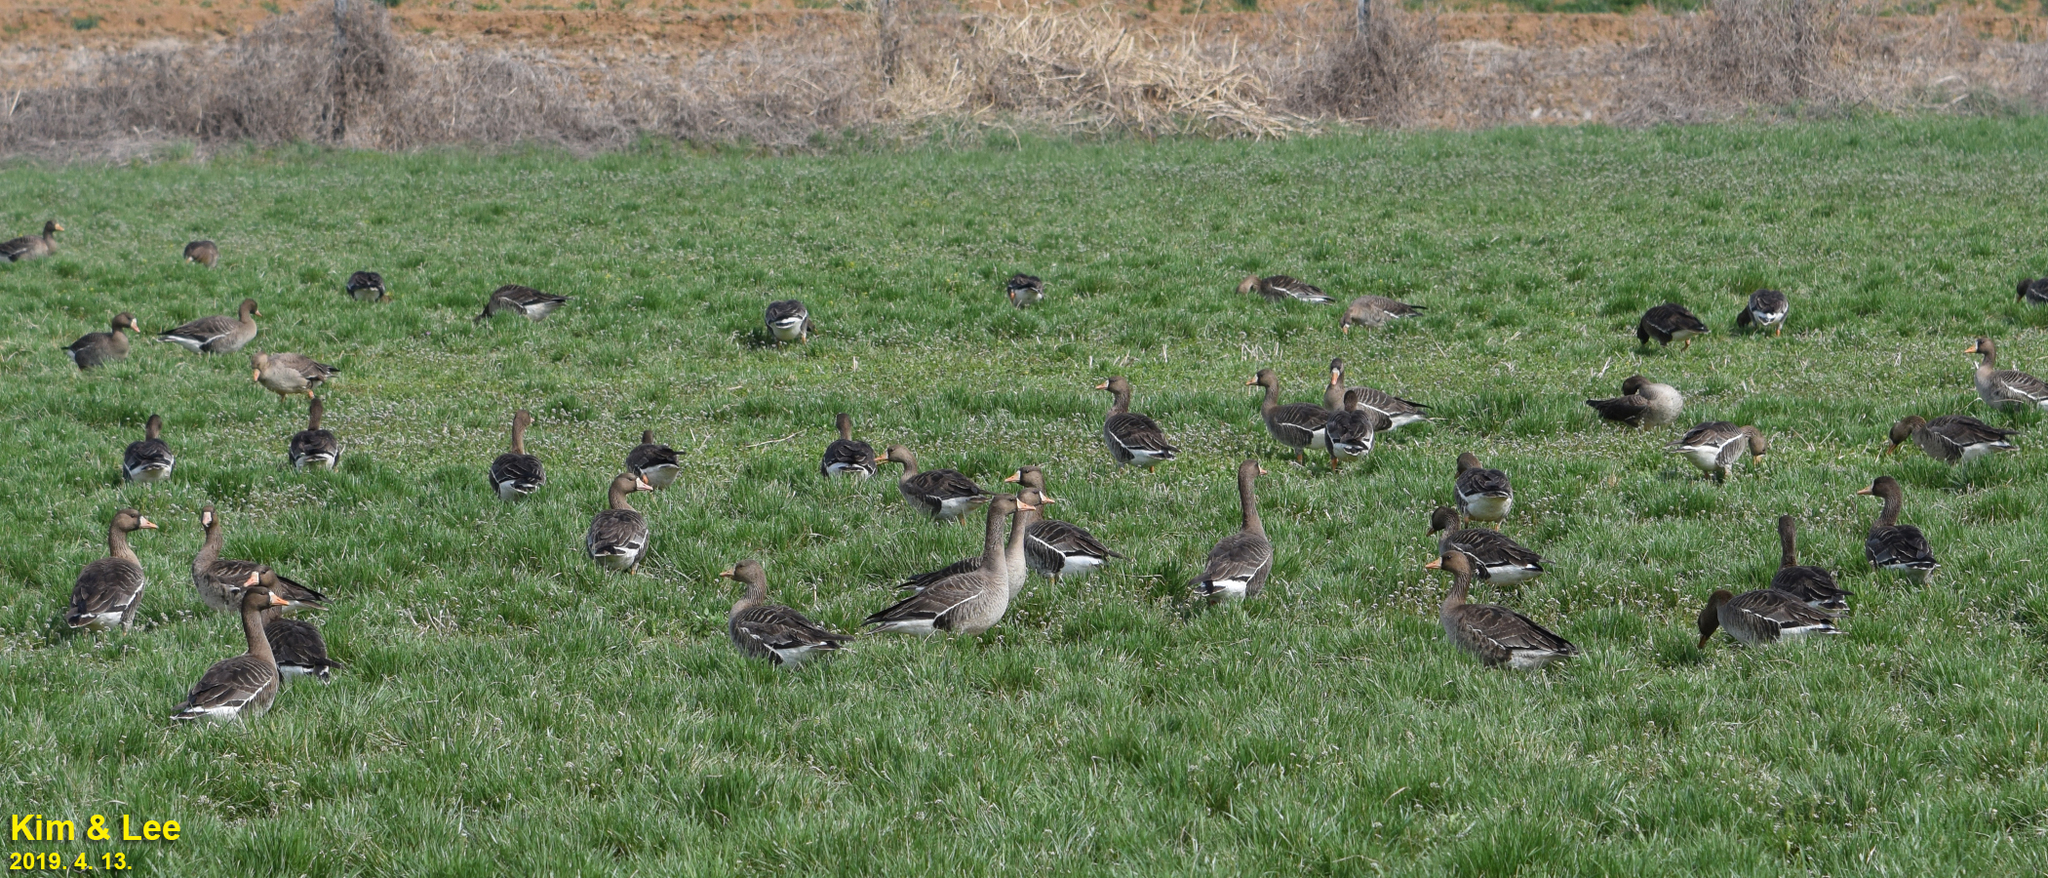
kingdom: Animalia
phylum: Chordata
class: Aves
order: Anseriformes
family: Anatidae
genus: Anser
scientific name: Anser albifrons
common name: Greater white-fronted goose
